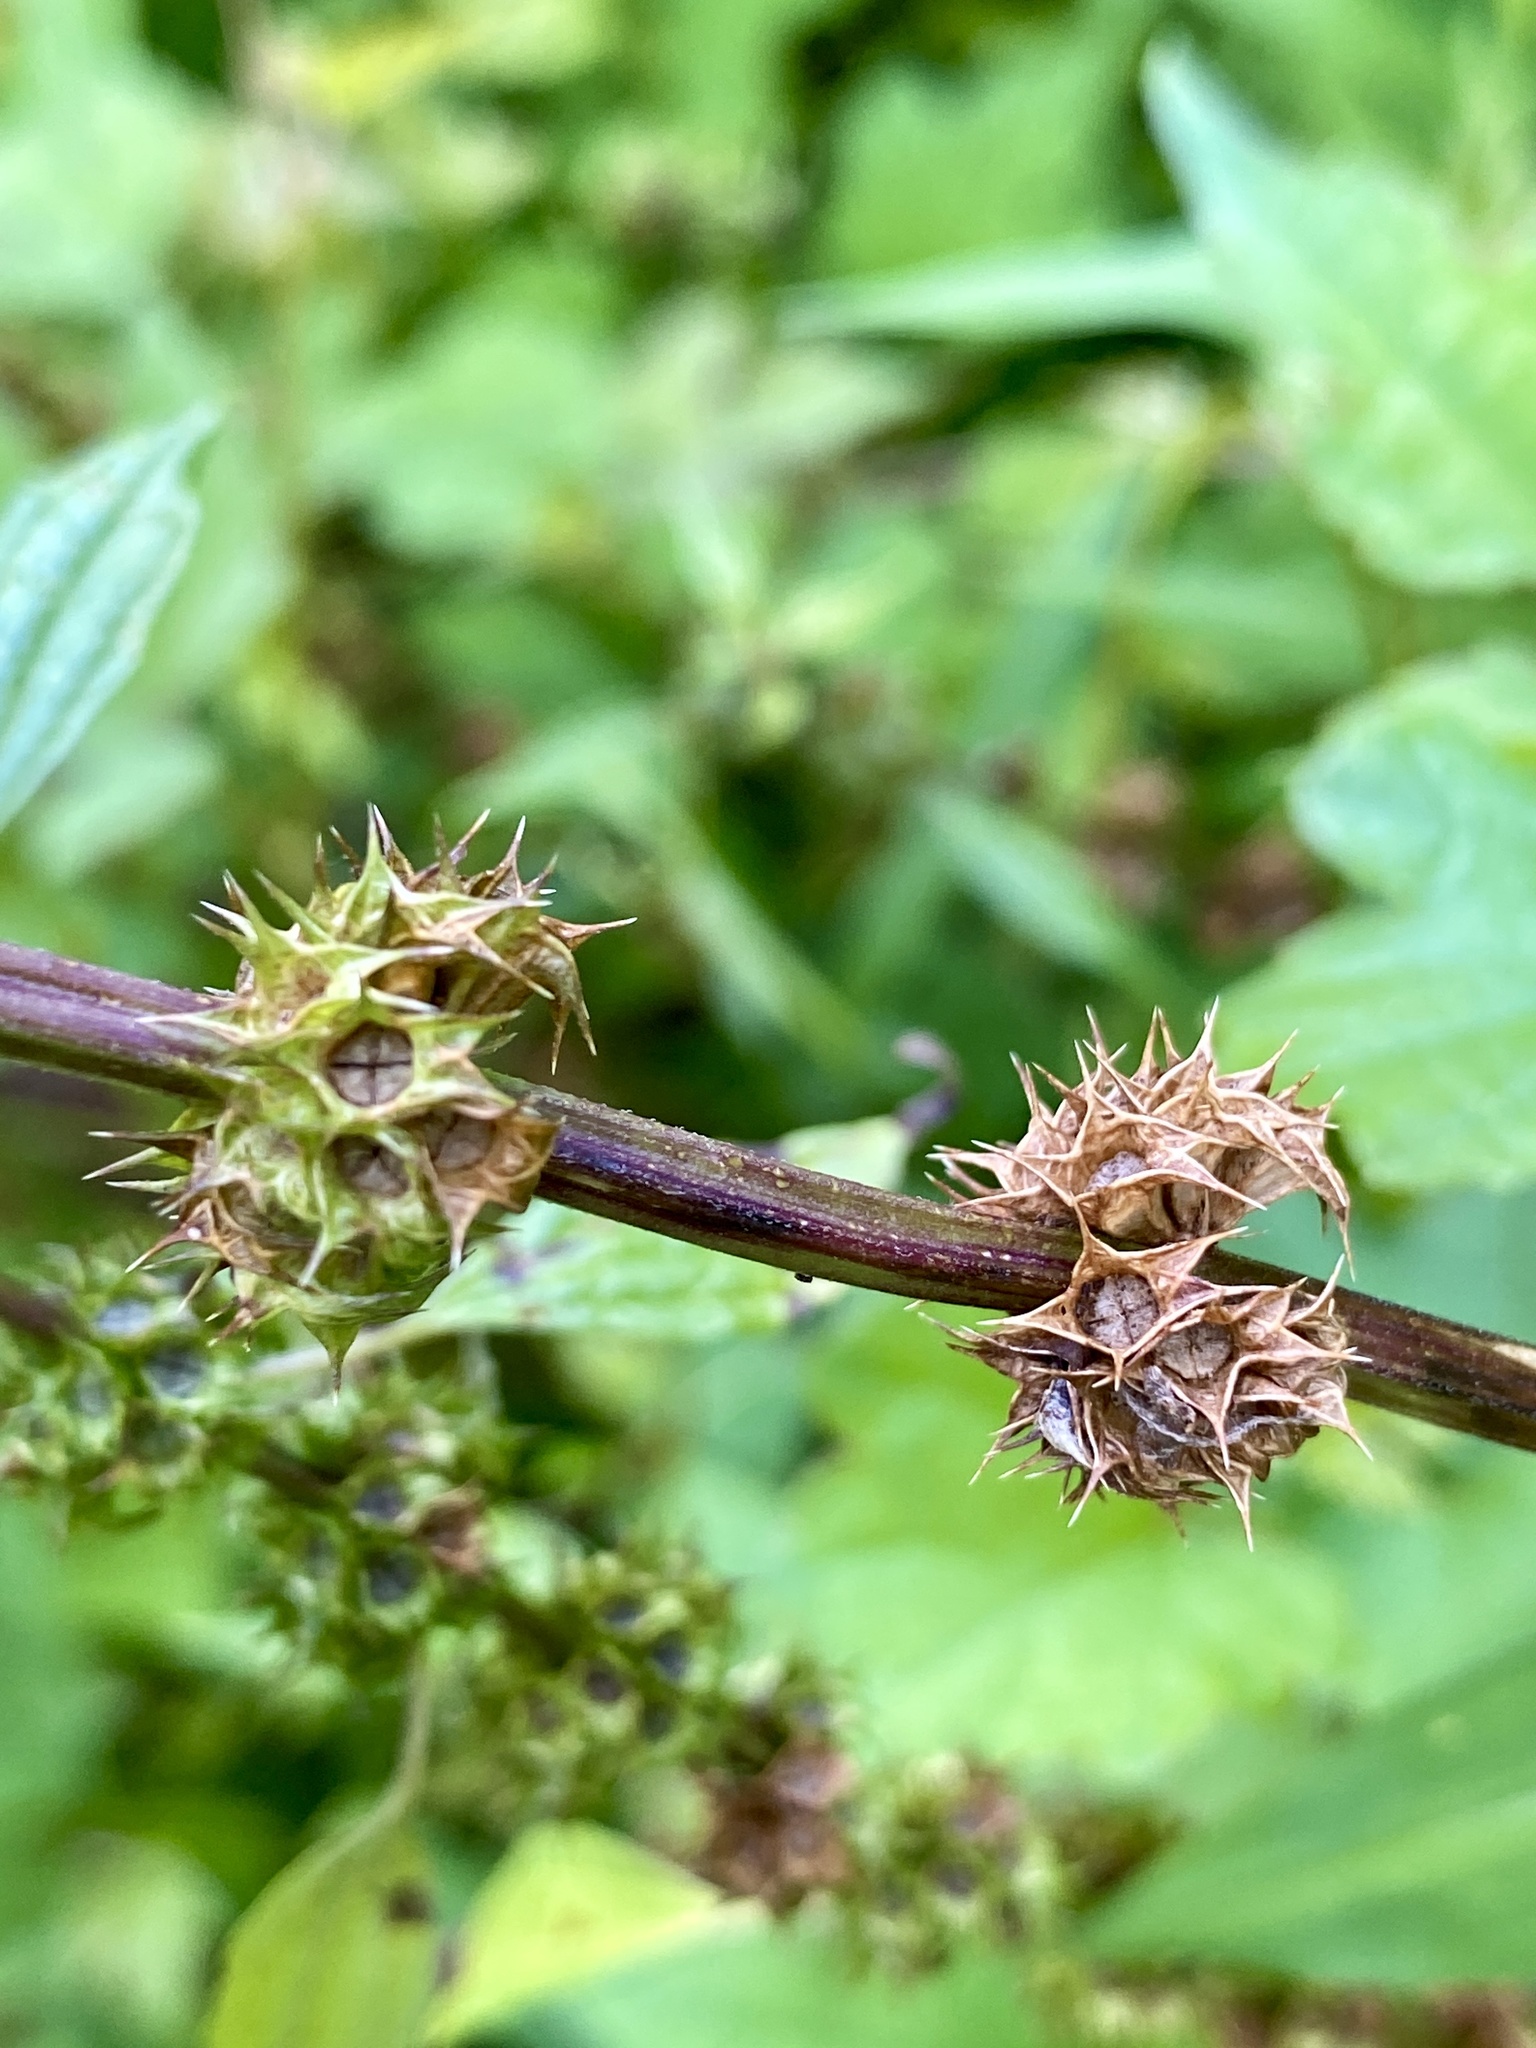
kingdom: Plantae
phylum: Tracheophyta
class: Magnoliopsida
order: Lamiales
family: Lamiaceae
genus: Leonurus
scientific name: Leonurus cardiaca
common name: Motherwort
